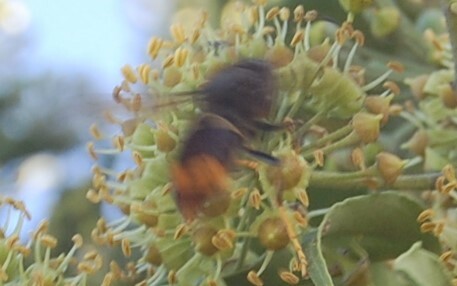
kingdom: Animalia
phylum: Arthropoda
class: Insecta
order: Hymenoptera
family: Vespidae
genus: Vespa
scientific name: Vespa velutina
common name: Asian hornet
